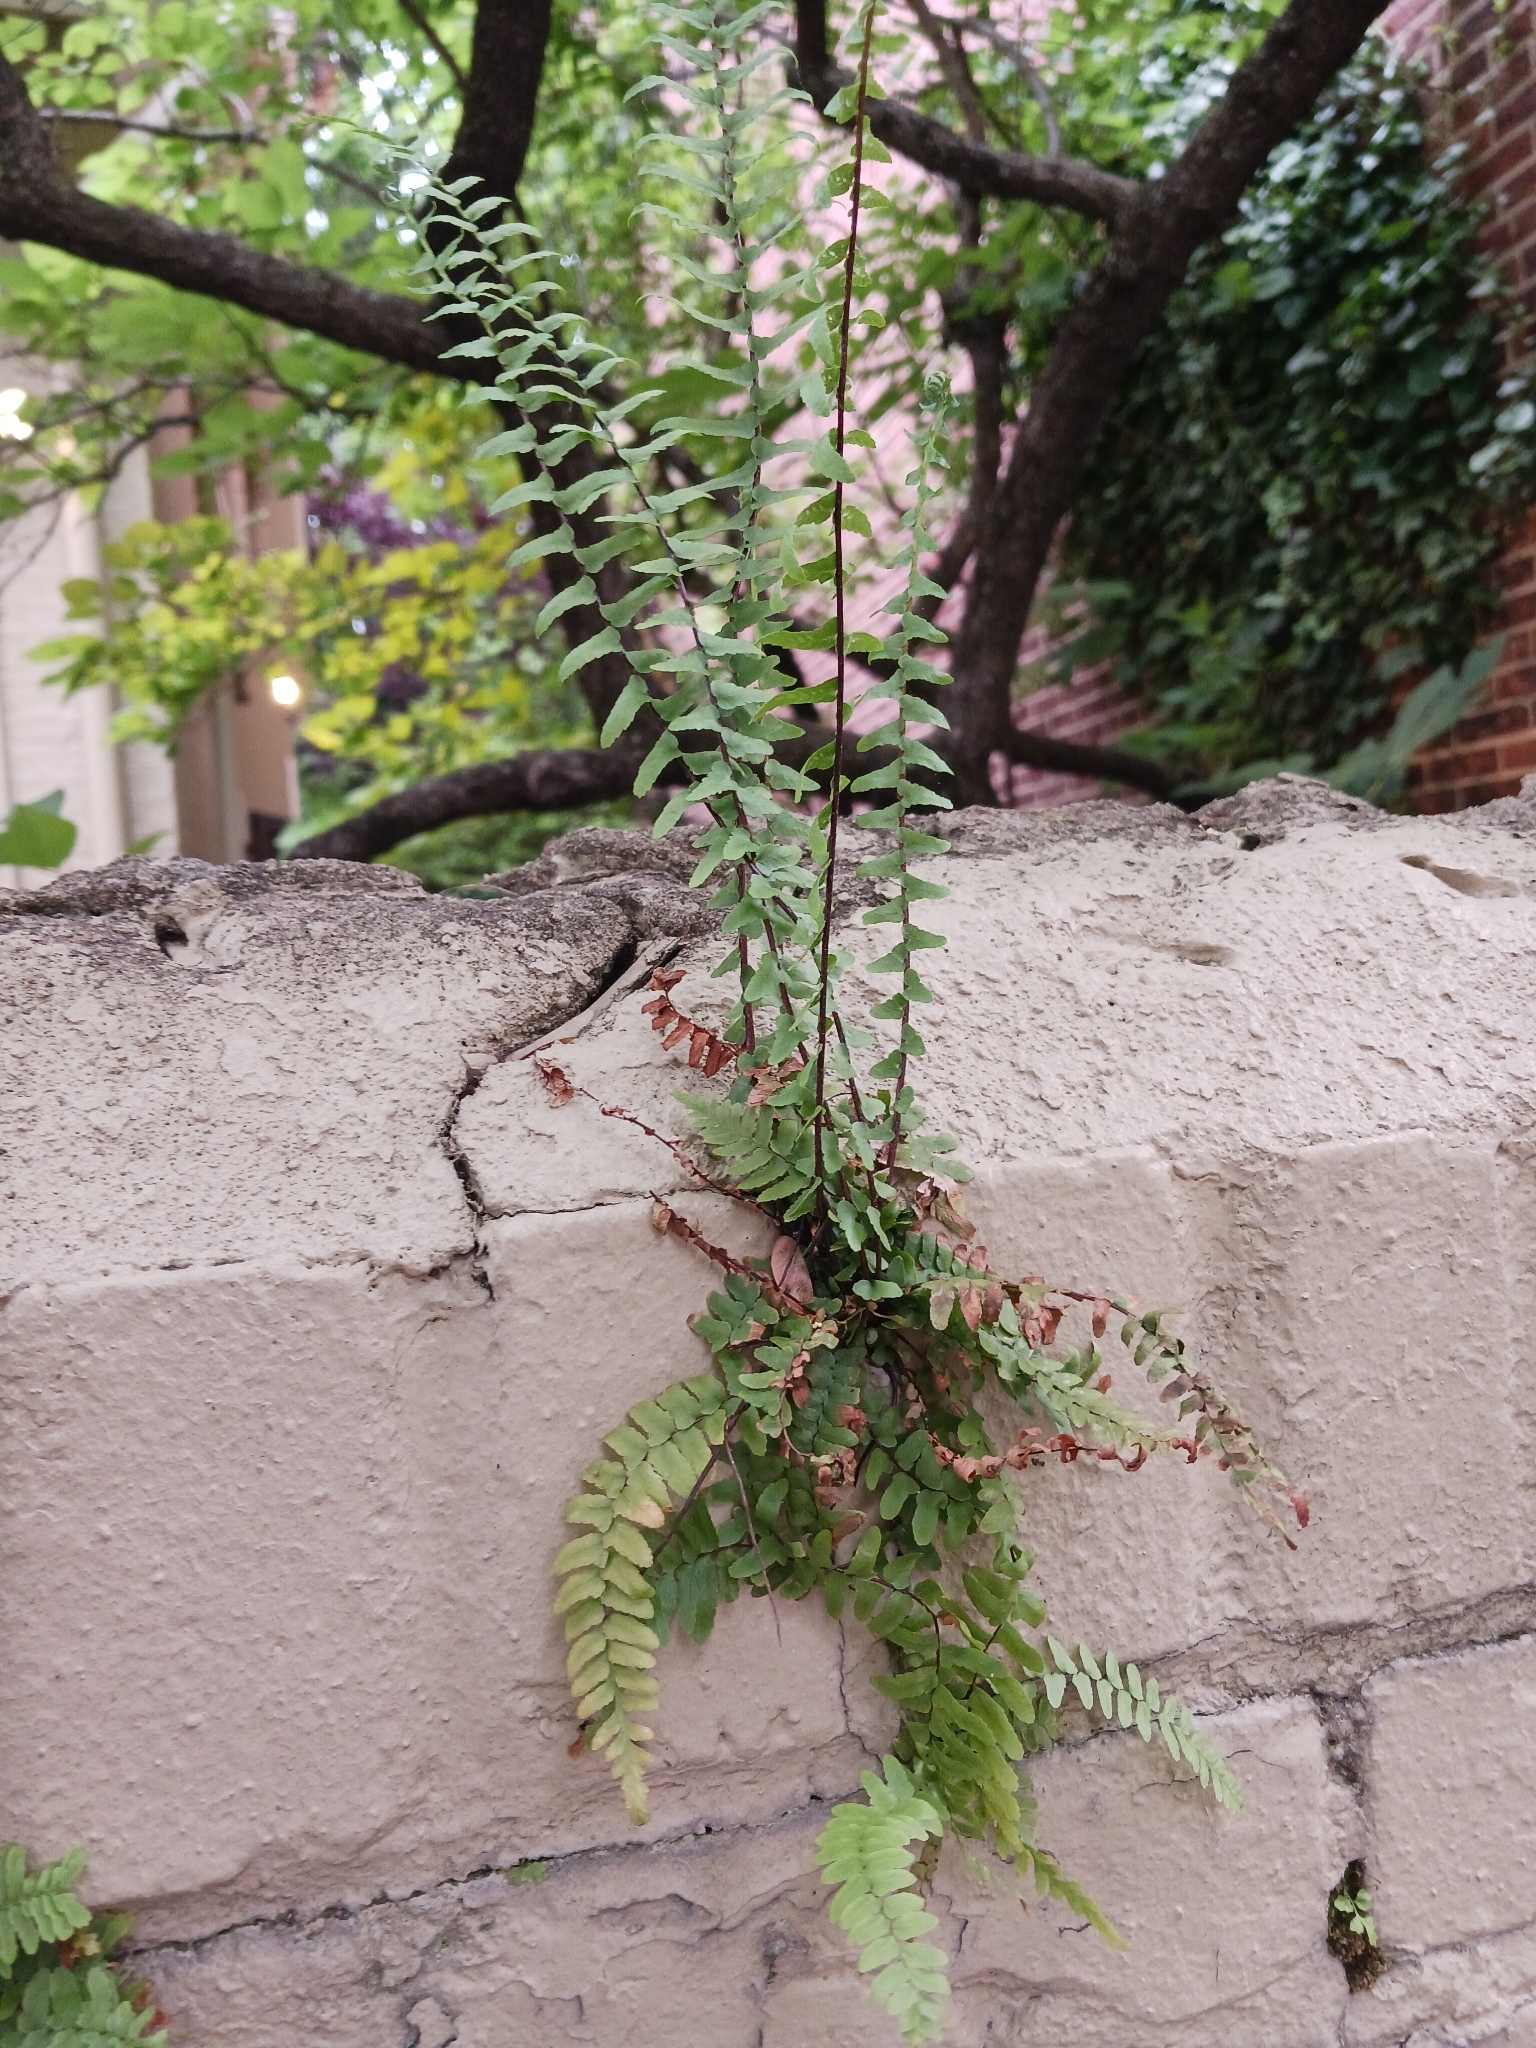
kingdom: Plantae
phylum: Tracheophyta
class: Polypodiopsida
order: Polypodiales
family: Aspleniaceae
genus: Asplenium
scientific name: Asplenium platyneuron
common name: Ebony spleenwort
